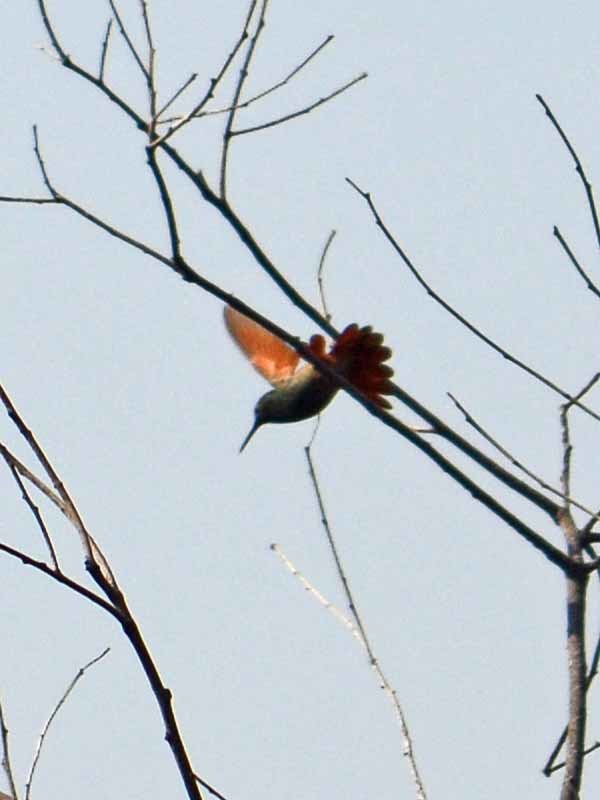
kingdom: Animalia
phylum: Chordata
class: Aves
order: Apodiformes
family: Trochilidae
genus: Saucerottia
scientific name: Saucerottia beryllina
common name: Berylline hummingbird
